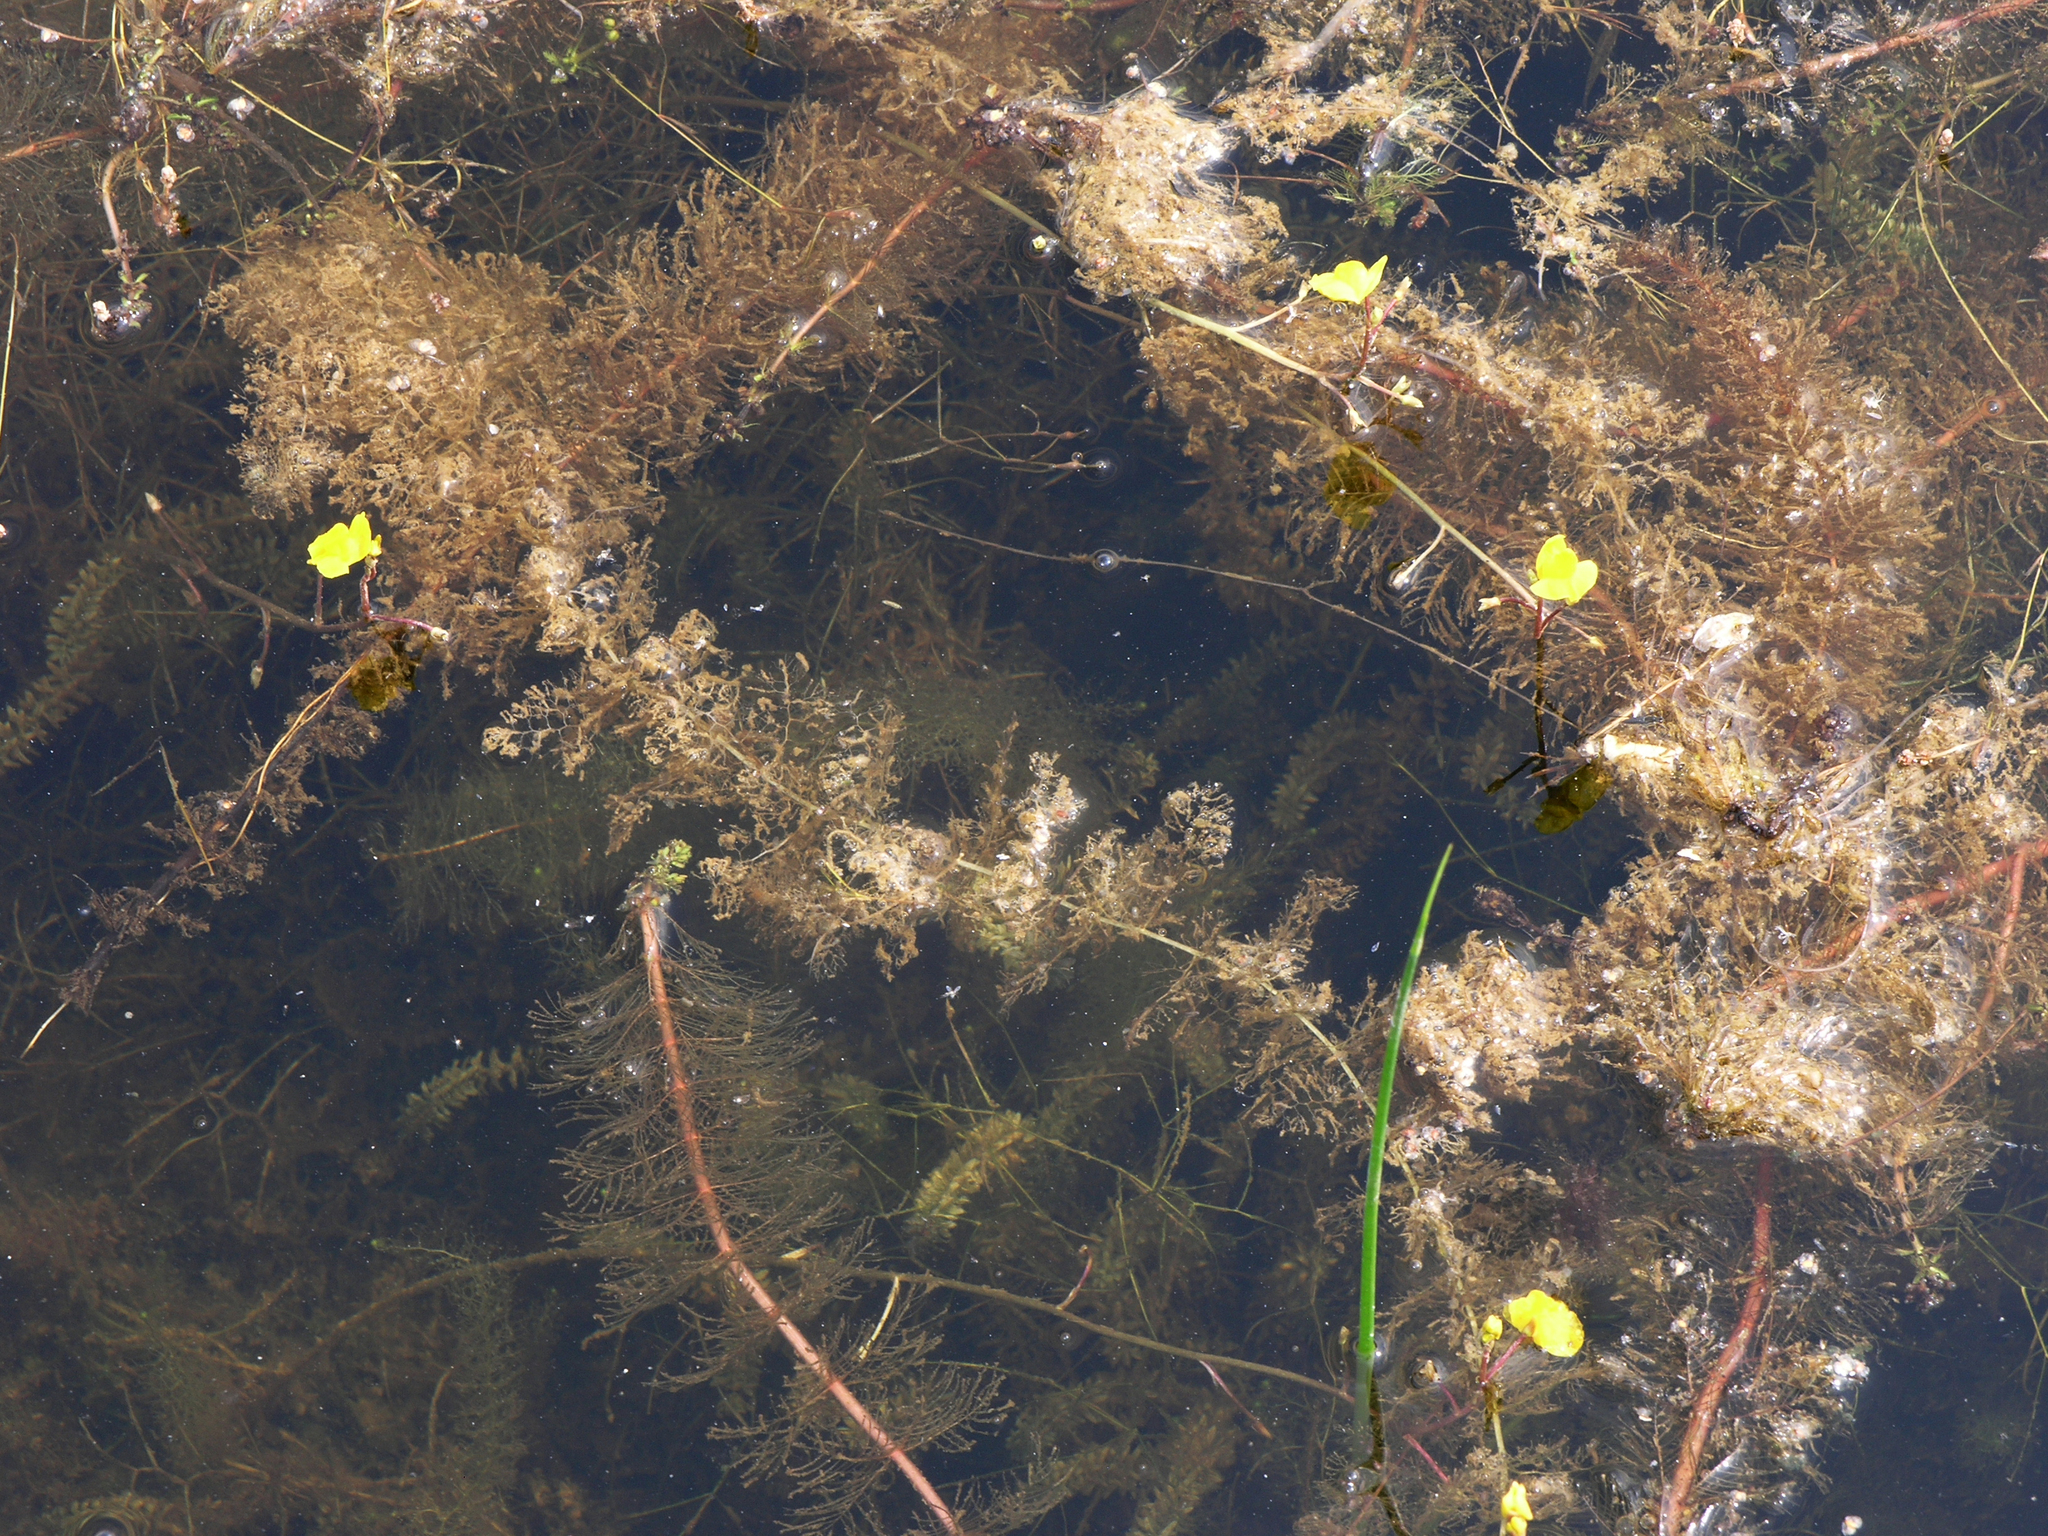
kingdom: Plantae
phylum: Tracheophyta
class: Magnoliopsida
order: Lamiales
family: Lentibulariaceae
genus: Utricularia
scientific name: Utricularia australis
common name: Bladderwort
